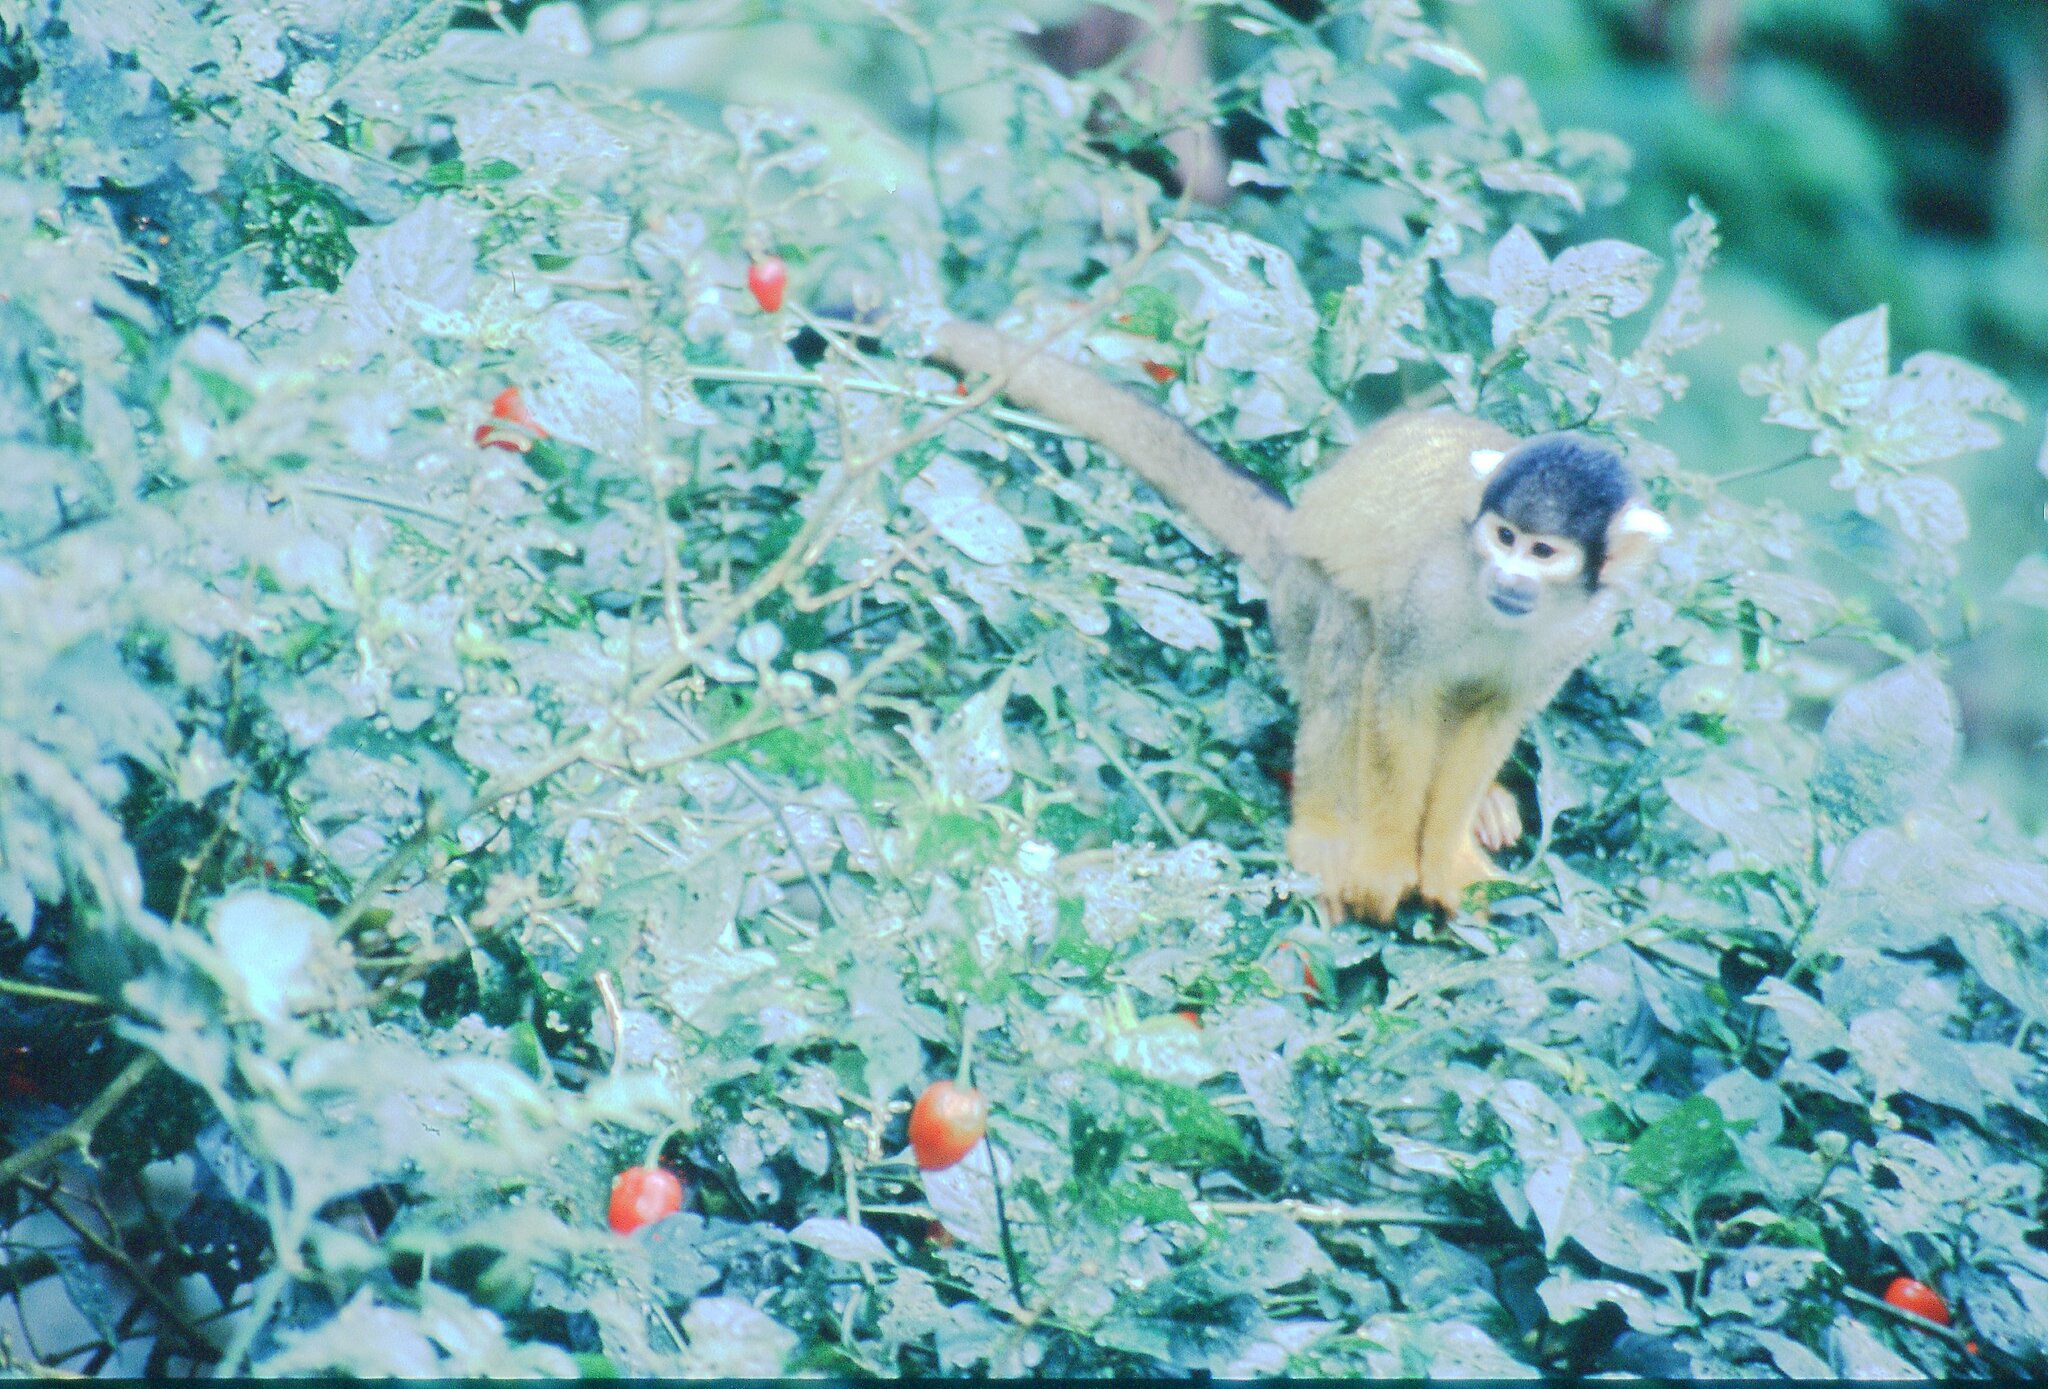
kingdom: Animalia
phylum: Chordata
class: Mammalia
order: Primates
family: Cebidae
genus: Saimiri
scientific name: Saimiri boliviensis
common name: Black-capped squirrel monkey
